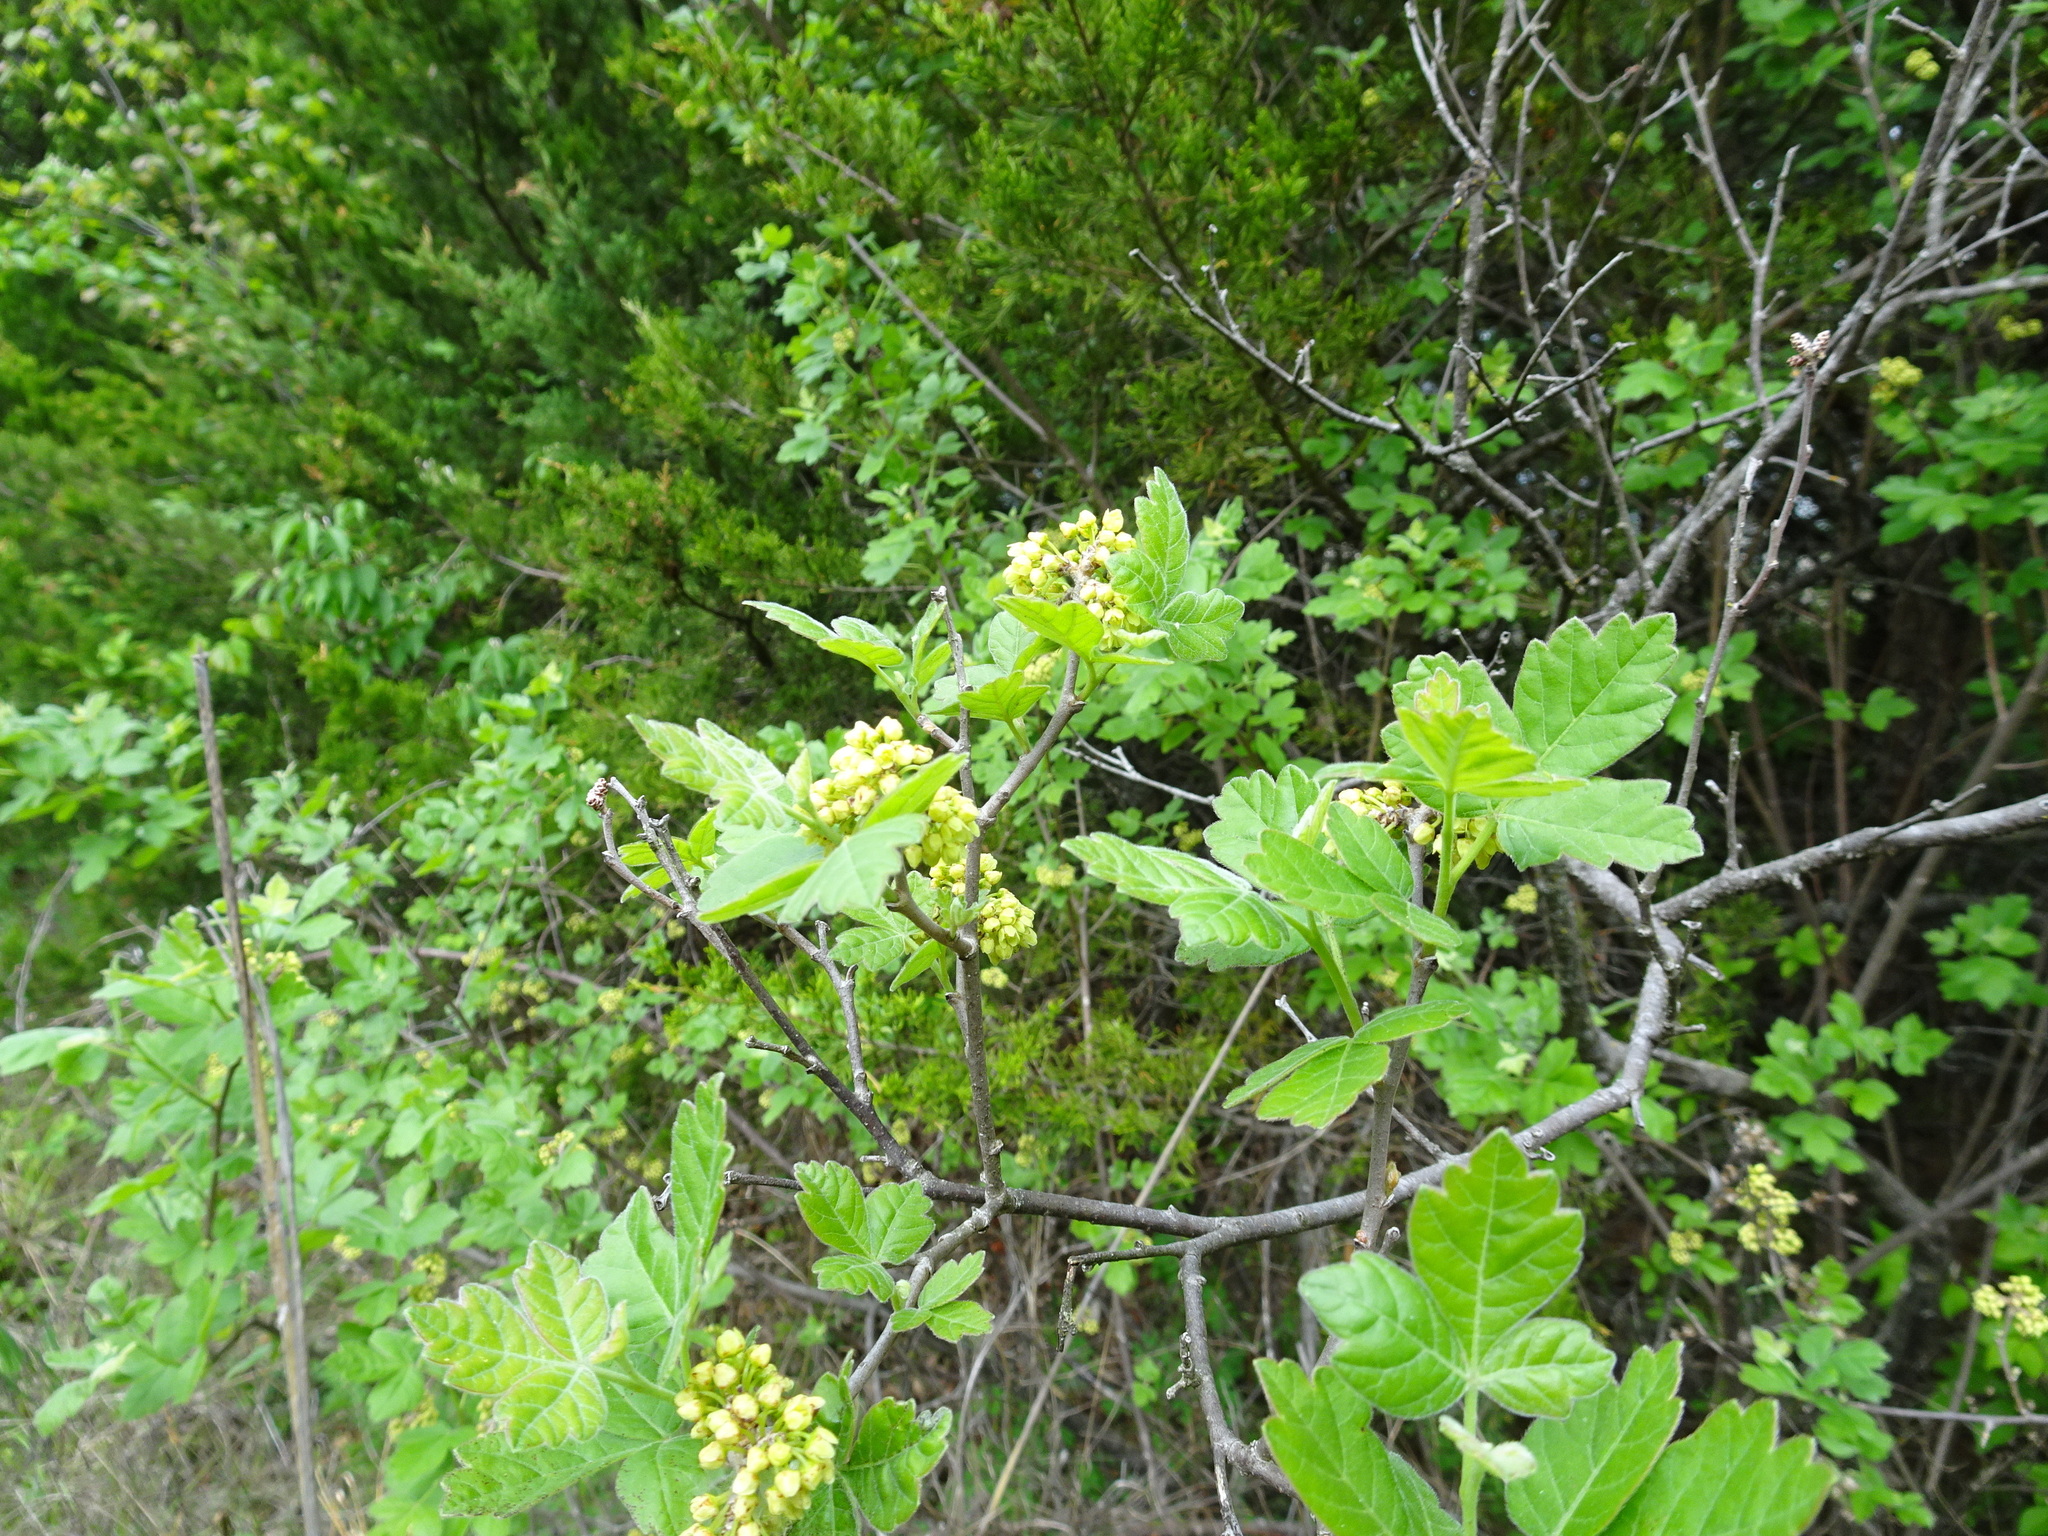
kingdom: Plantae
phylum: Tracheophyta
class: Magnoliopsida
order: Sapindales
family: Anacardiaceae
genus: Rhus
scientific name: Rhus aromatica
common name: Aromatic sumac
